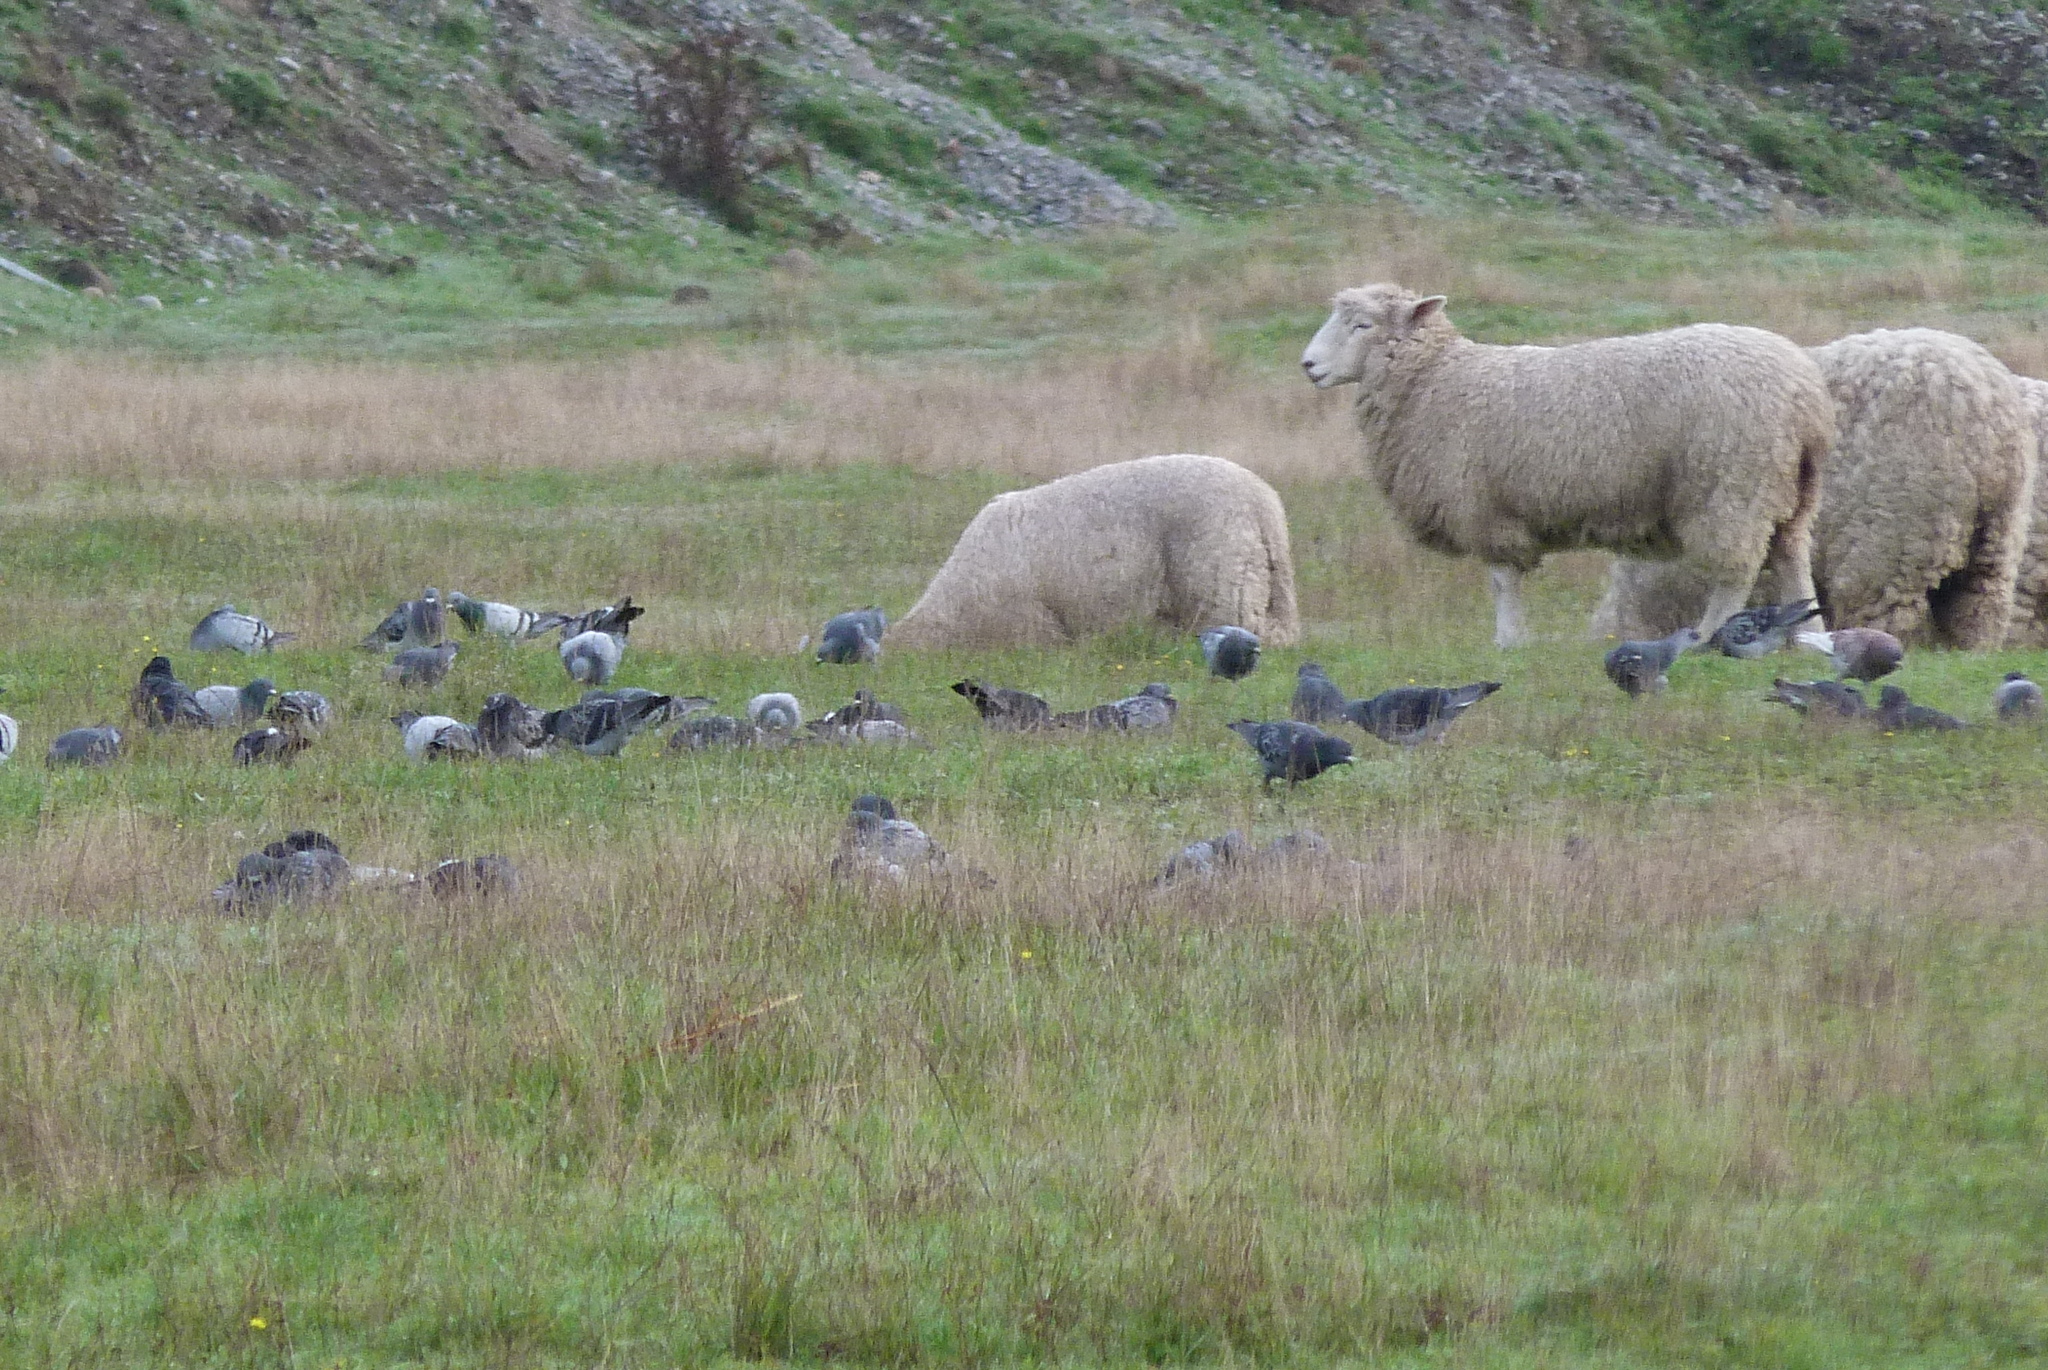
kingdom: Animalia
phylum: Chordata
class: Aves
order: Columbiformes
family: Columbidae
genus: Columba
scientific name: Columba livia
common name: Rock pigeon
